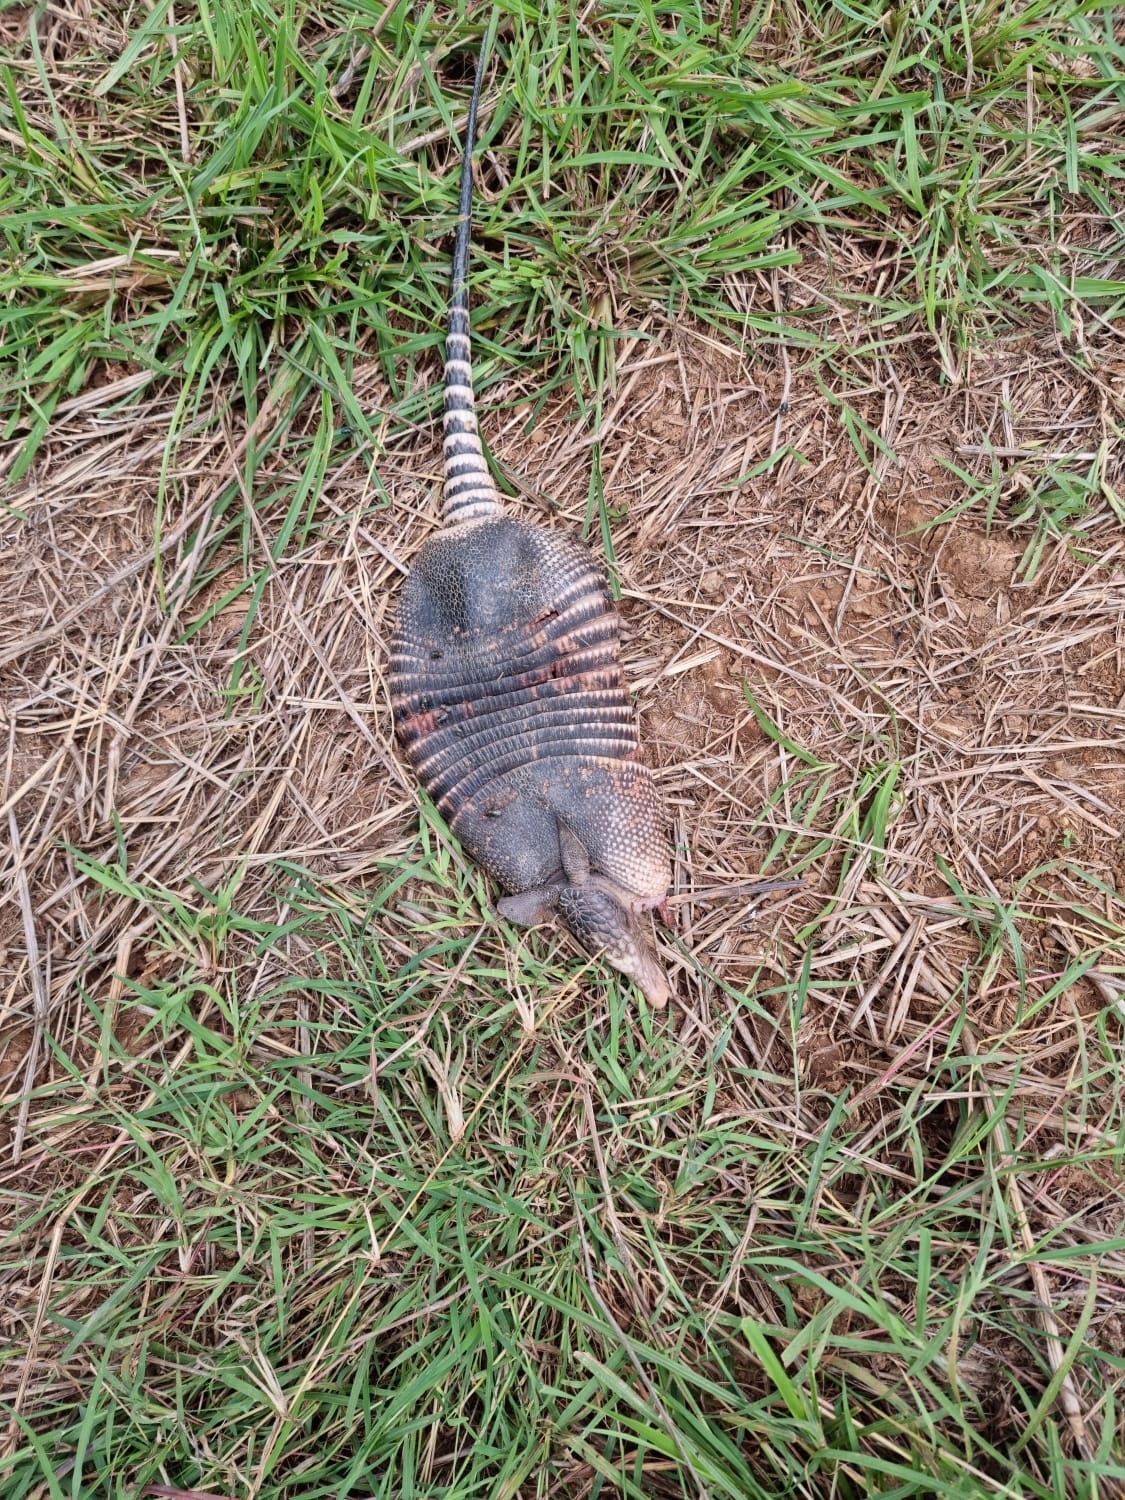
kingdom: Animalia
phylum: Chordata
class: Mammalia
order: Cingulata
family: Dasypodidae
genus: Dasypus
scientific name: Dasypus novemcinctus
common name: Nine-banded armadillo
